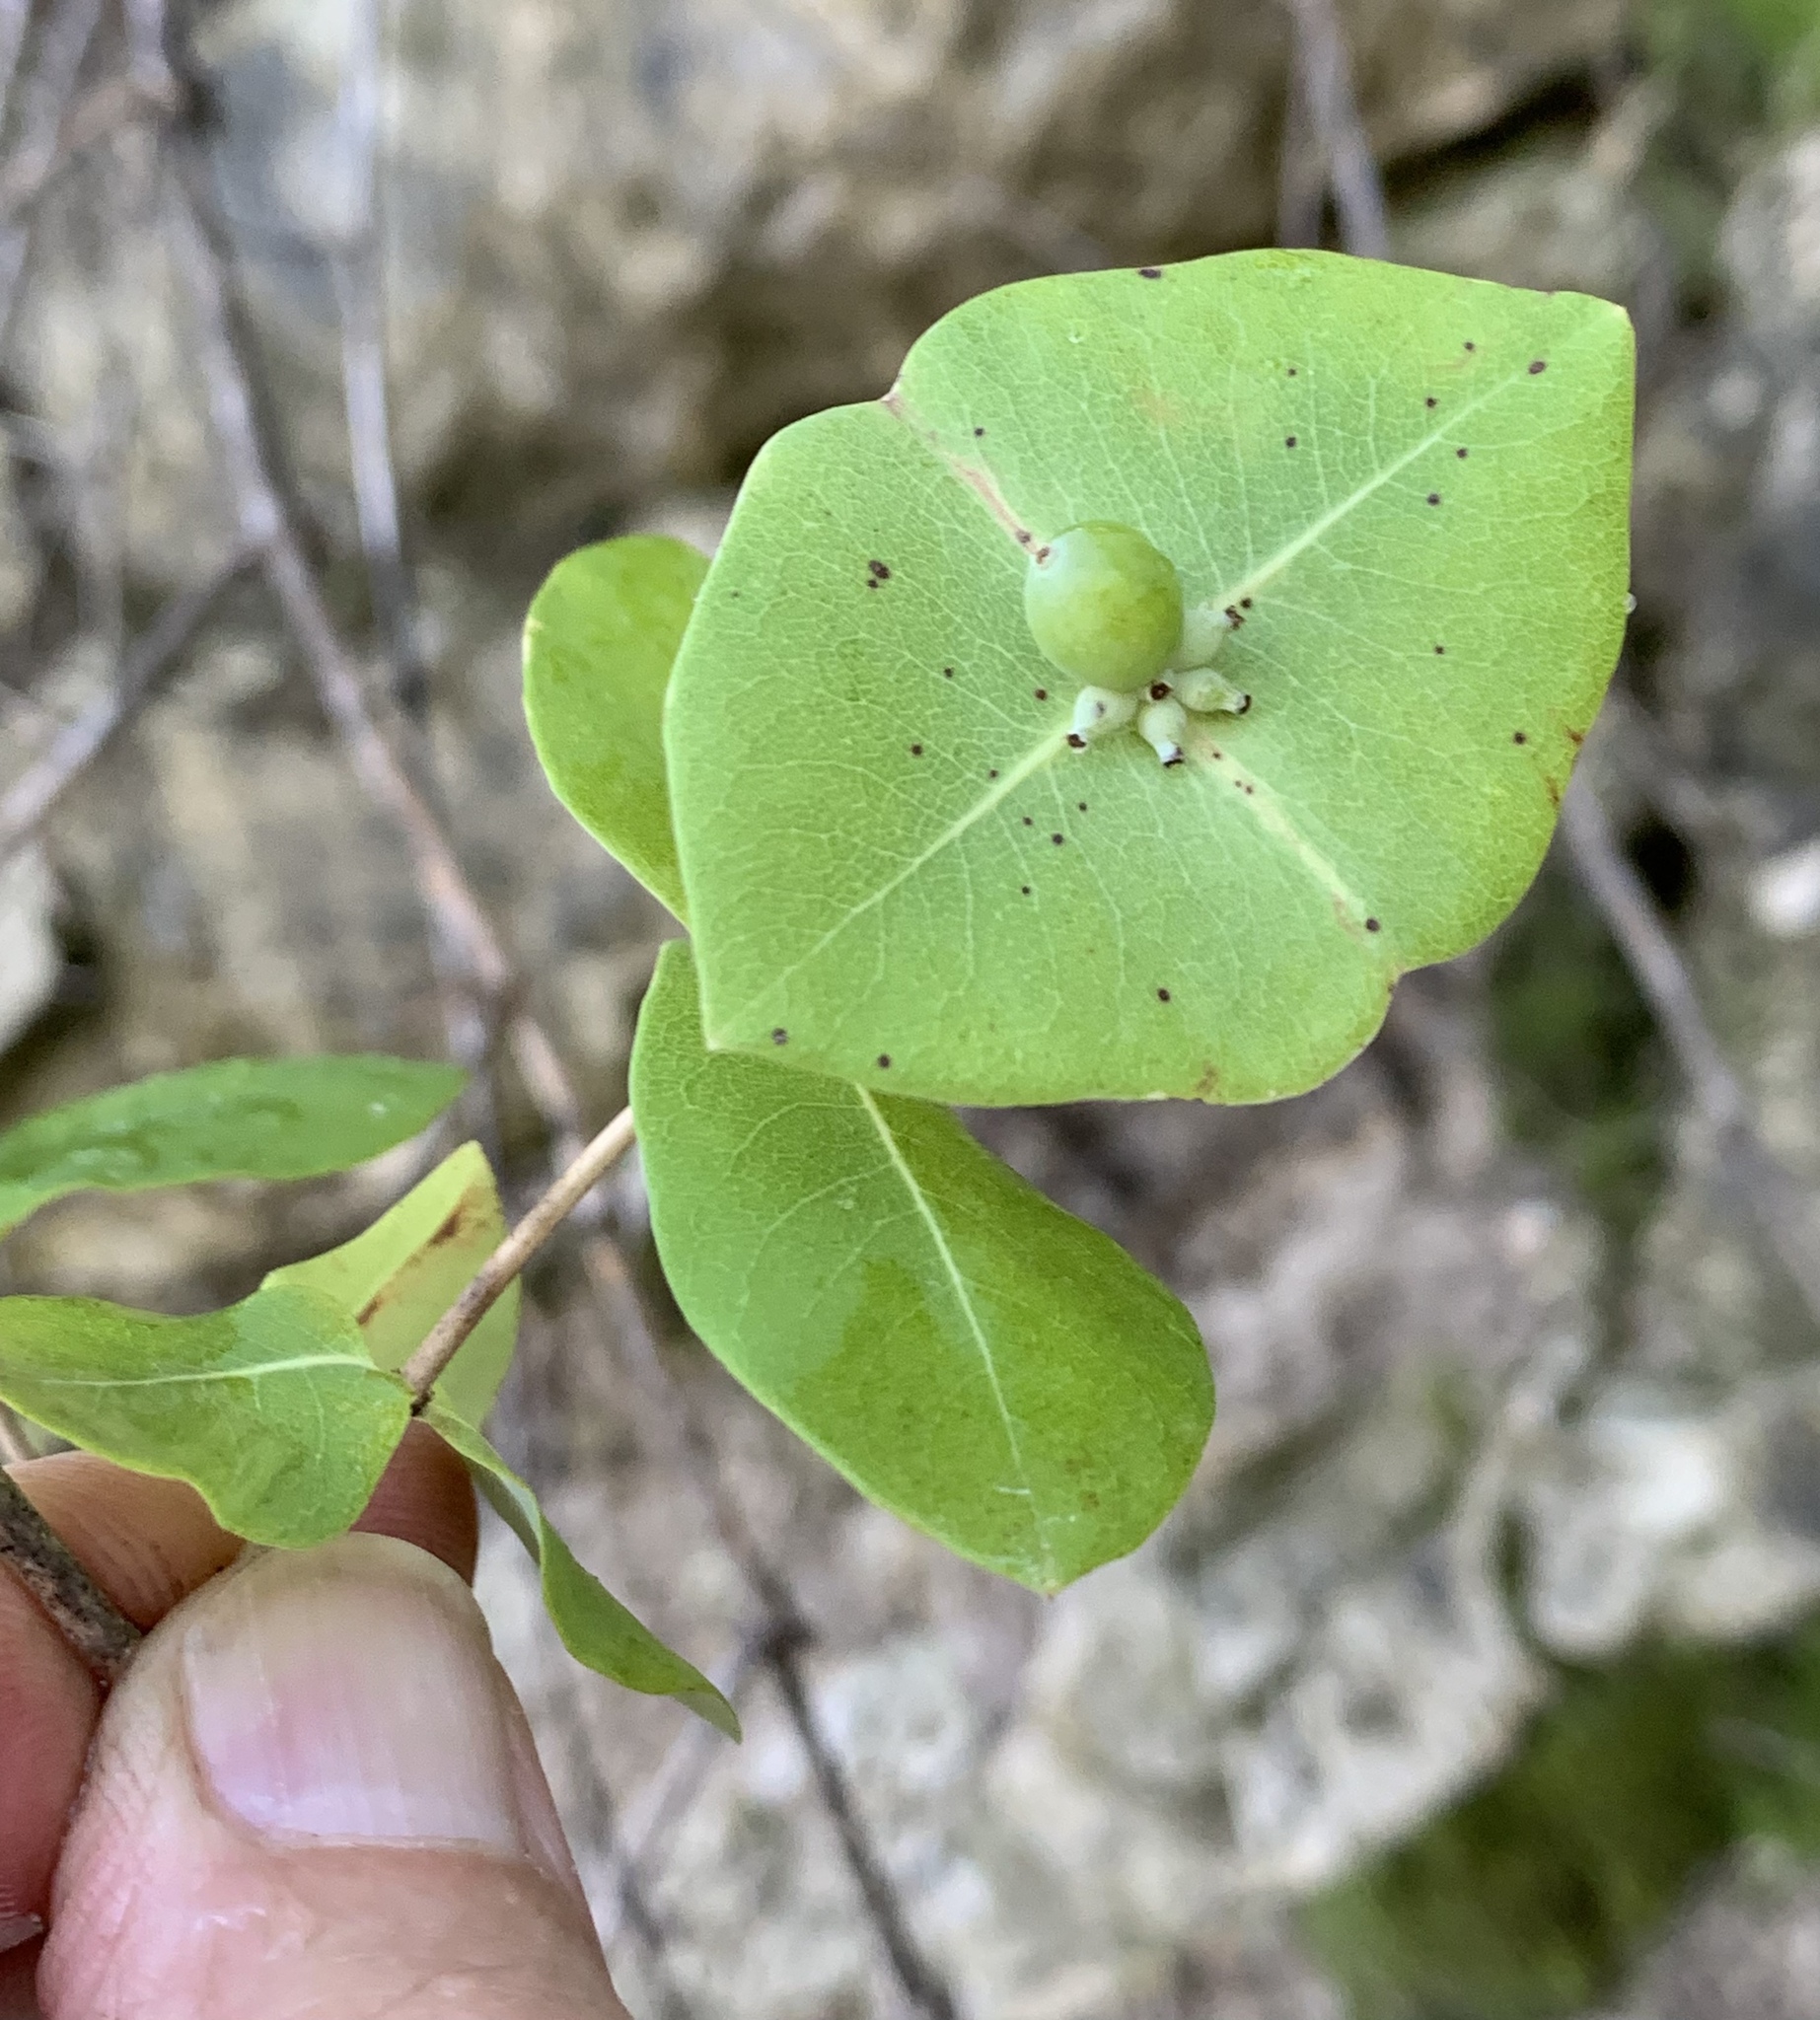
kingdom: Plantae
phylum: Tracheophyta
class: Magnoliopsida
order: Dipsacales
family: Caprifoliaceae
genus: Lonicera
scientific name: Lonicera sempervirens
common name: Coral honeysuckle
